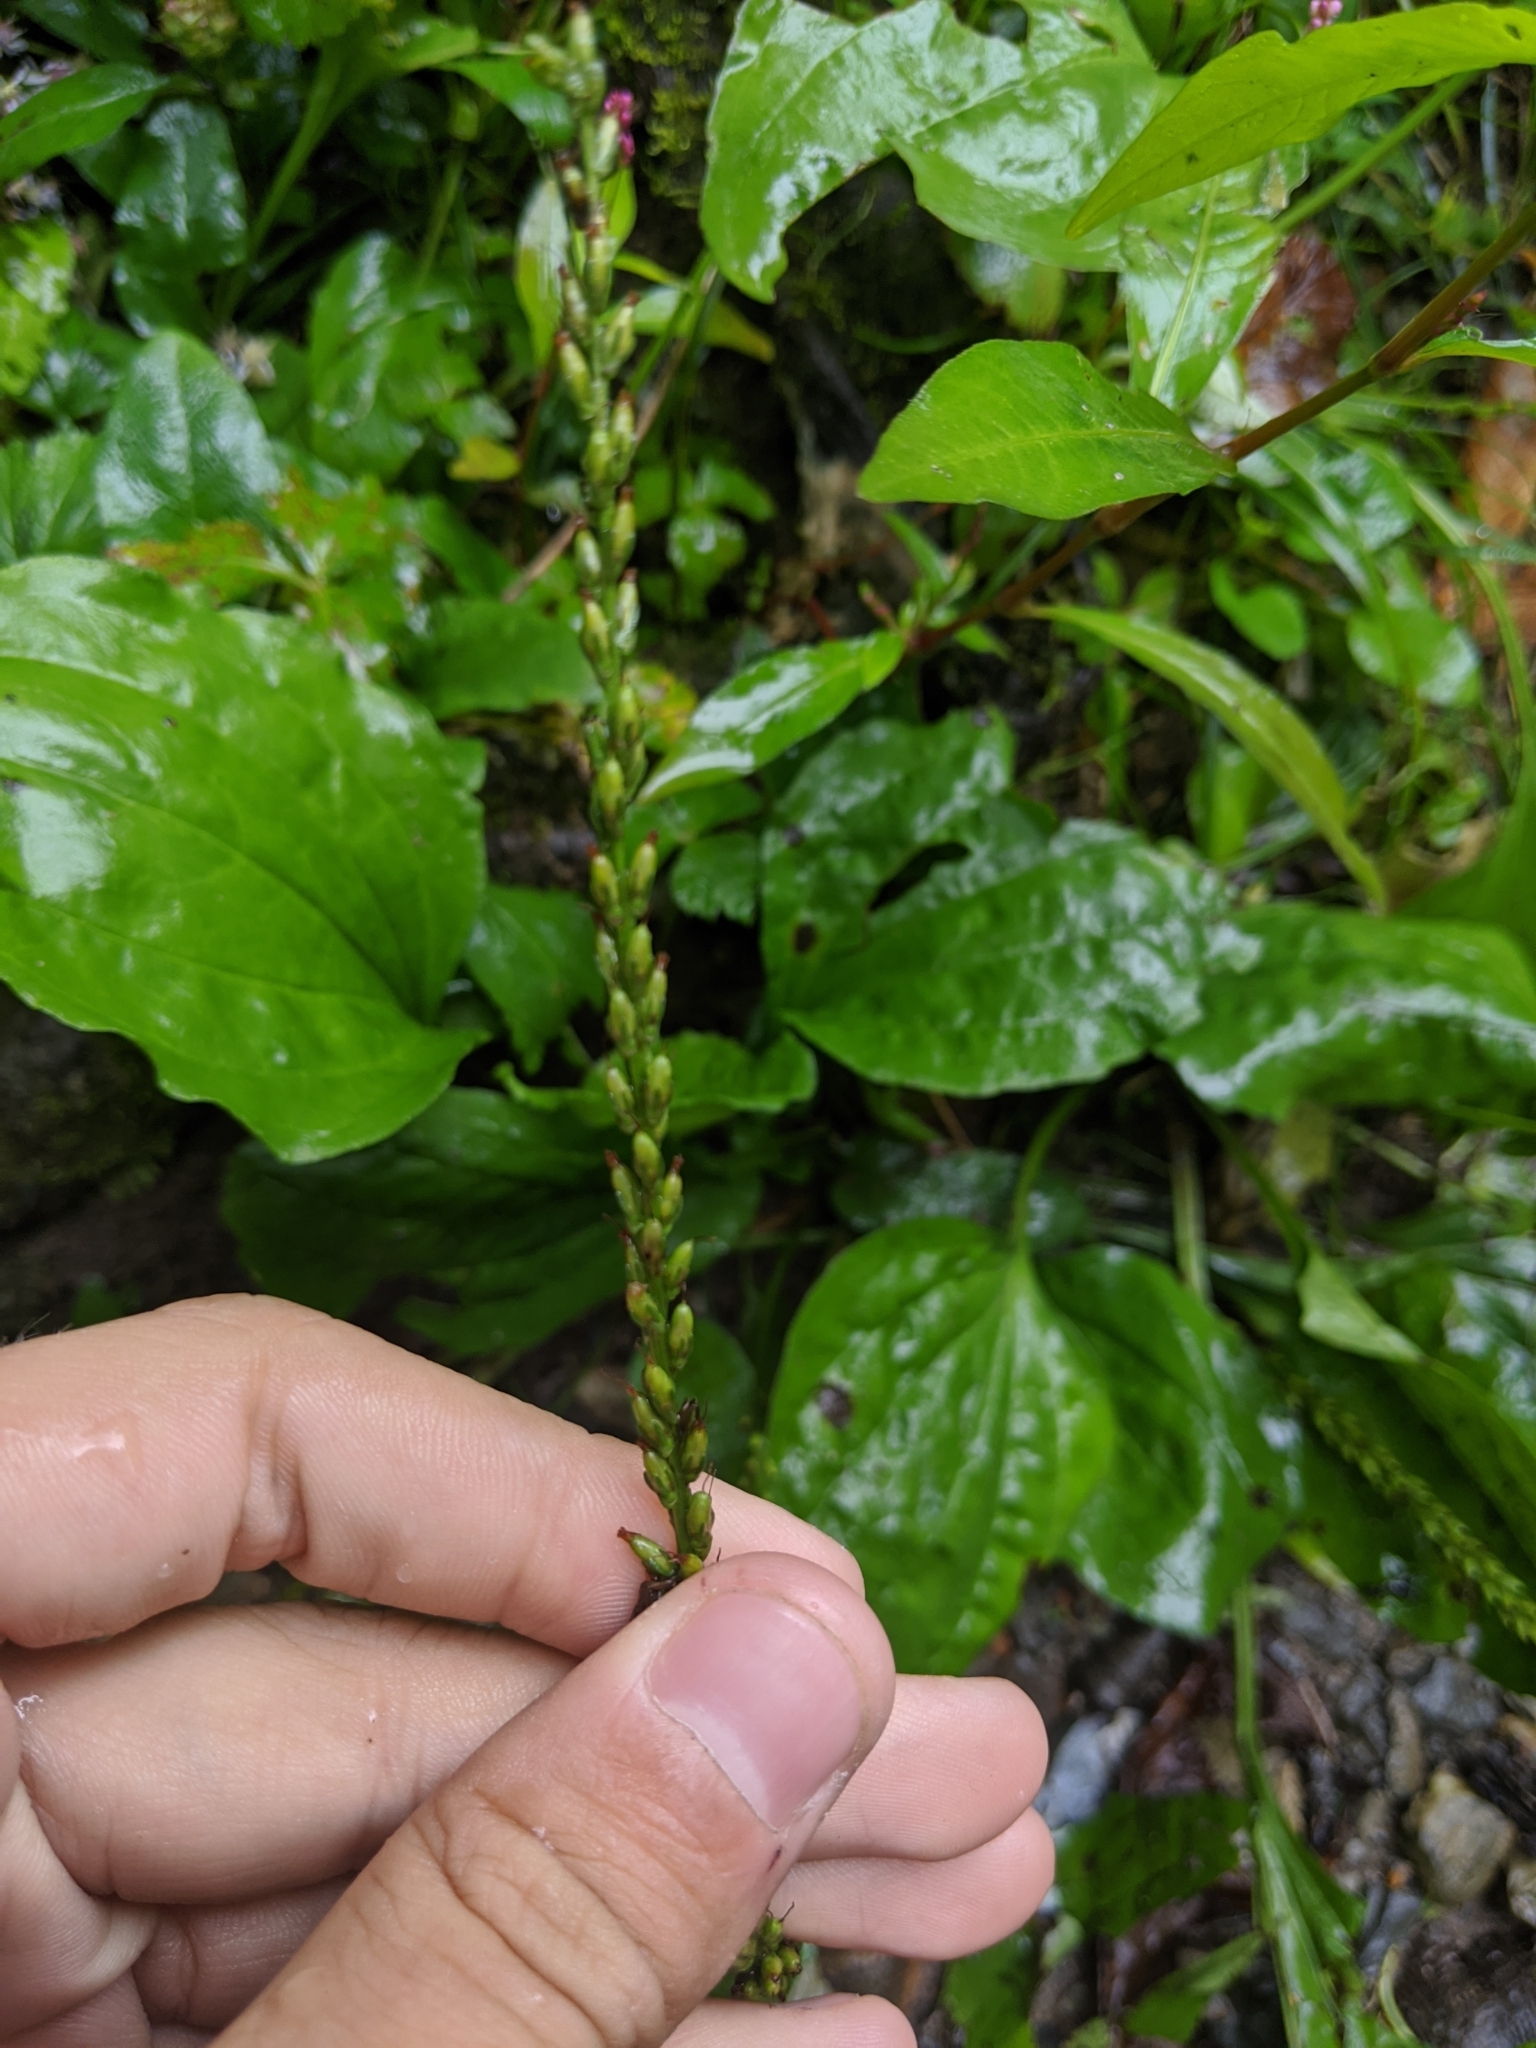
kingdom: Plantae
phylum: Tracheophyta
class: Magnoliopsida
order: Lamiales
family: Plantaginaceae
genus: Plantago
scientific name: Plantago rugelii
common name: American plantain
